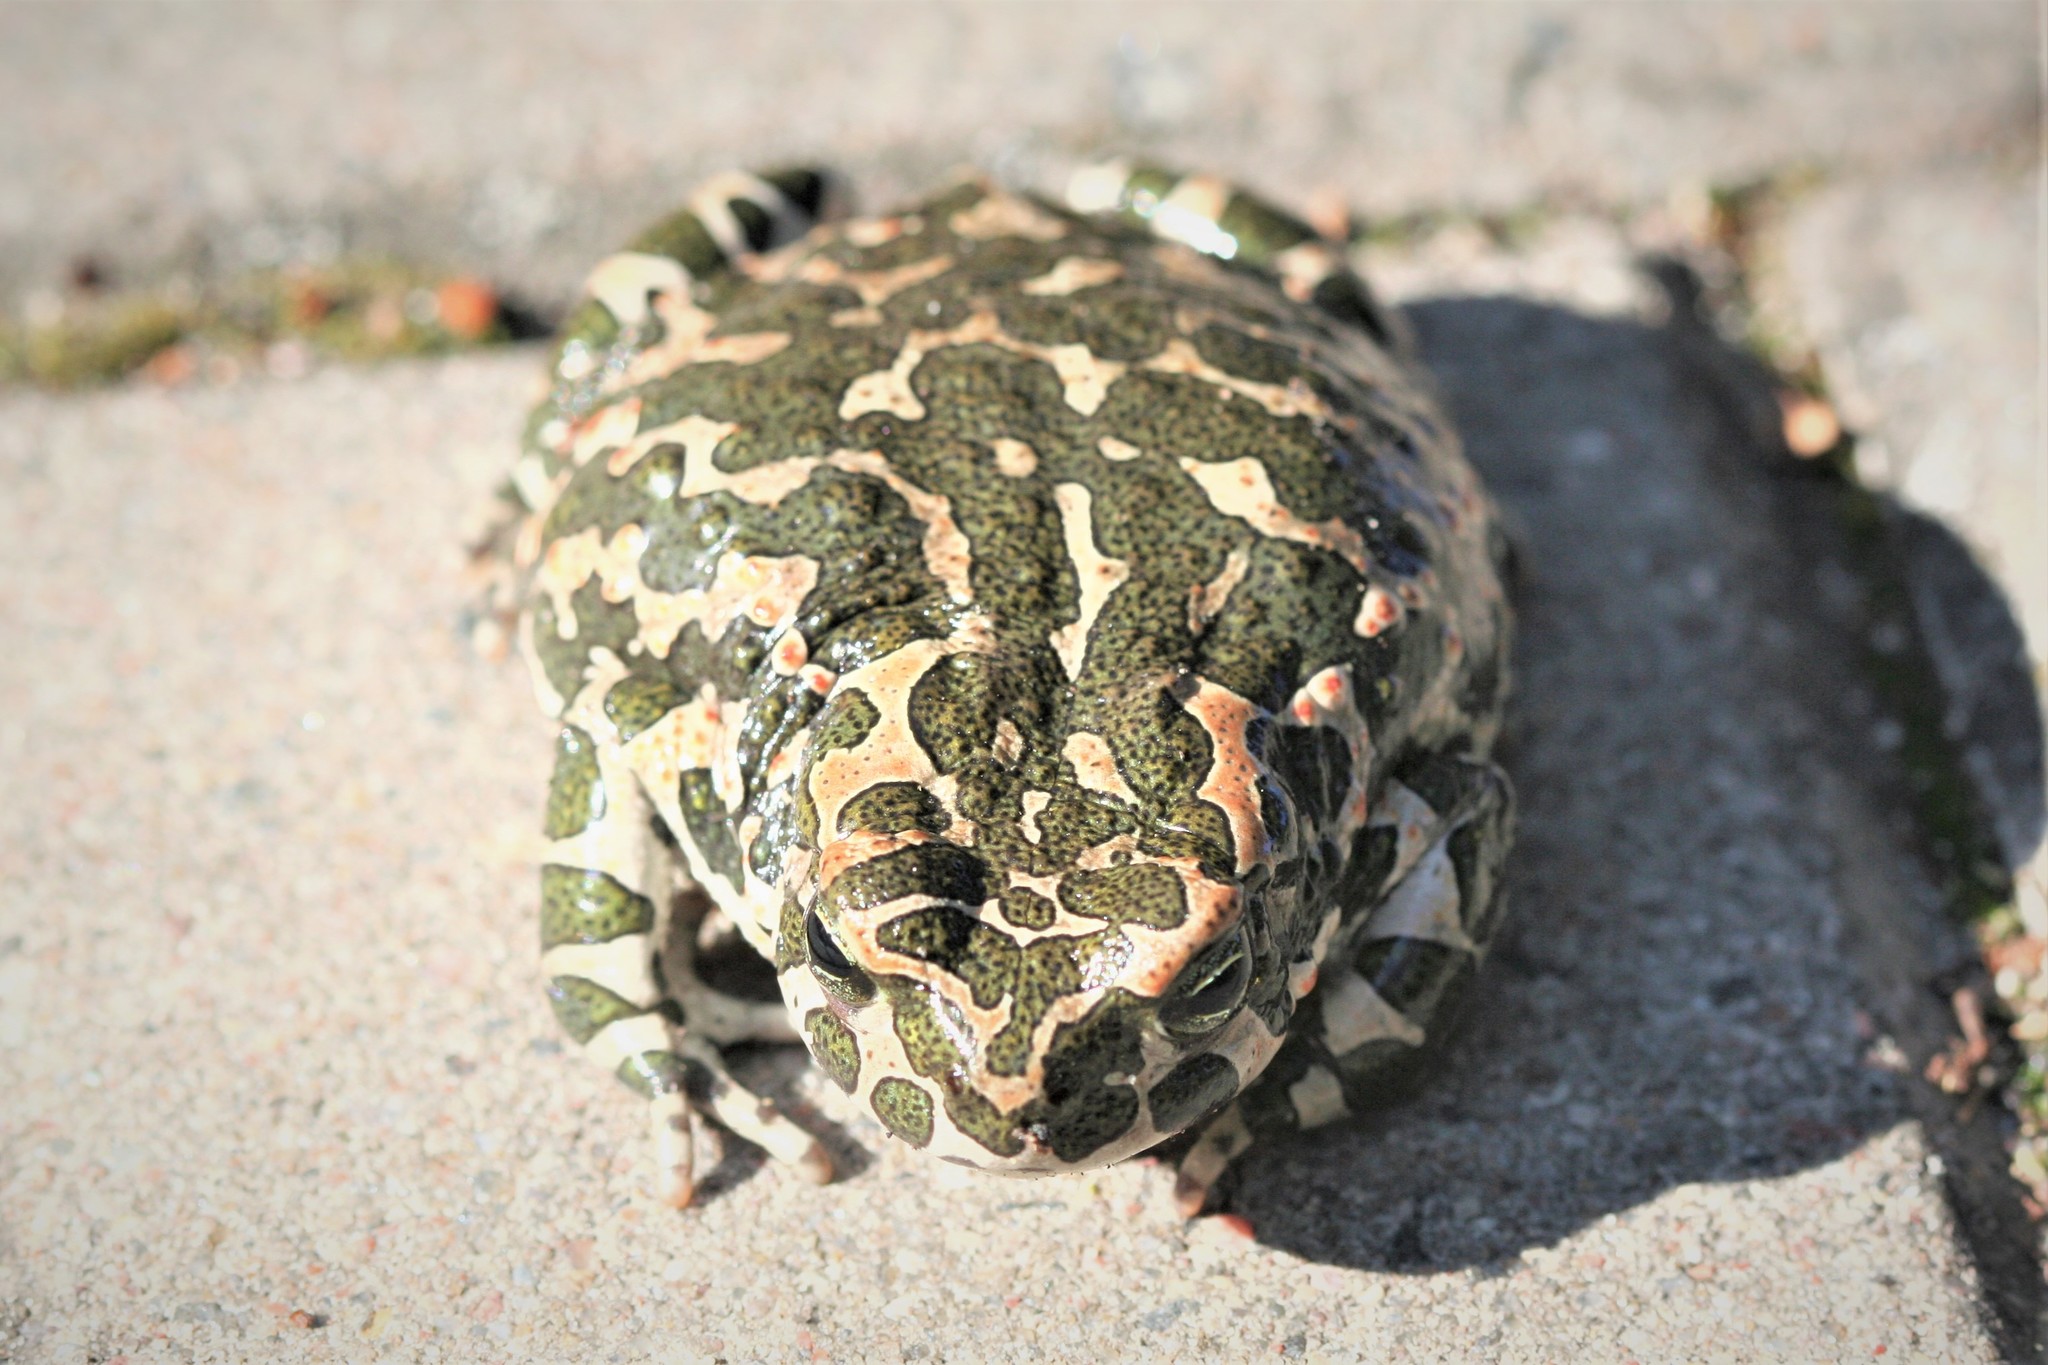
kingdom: Animalia
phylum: Chordata
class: Amphibia
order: Anura
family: Bufonidae
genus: Bufotes
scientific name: Bufotes viridis
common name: European green toad
